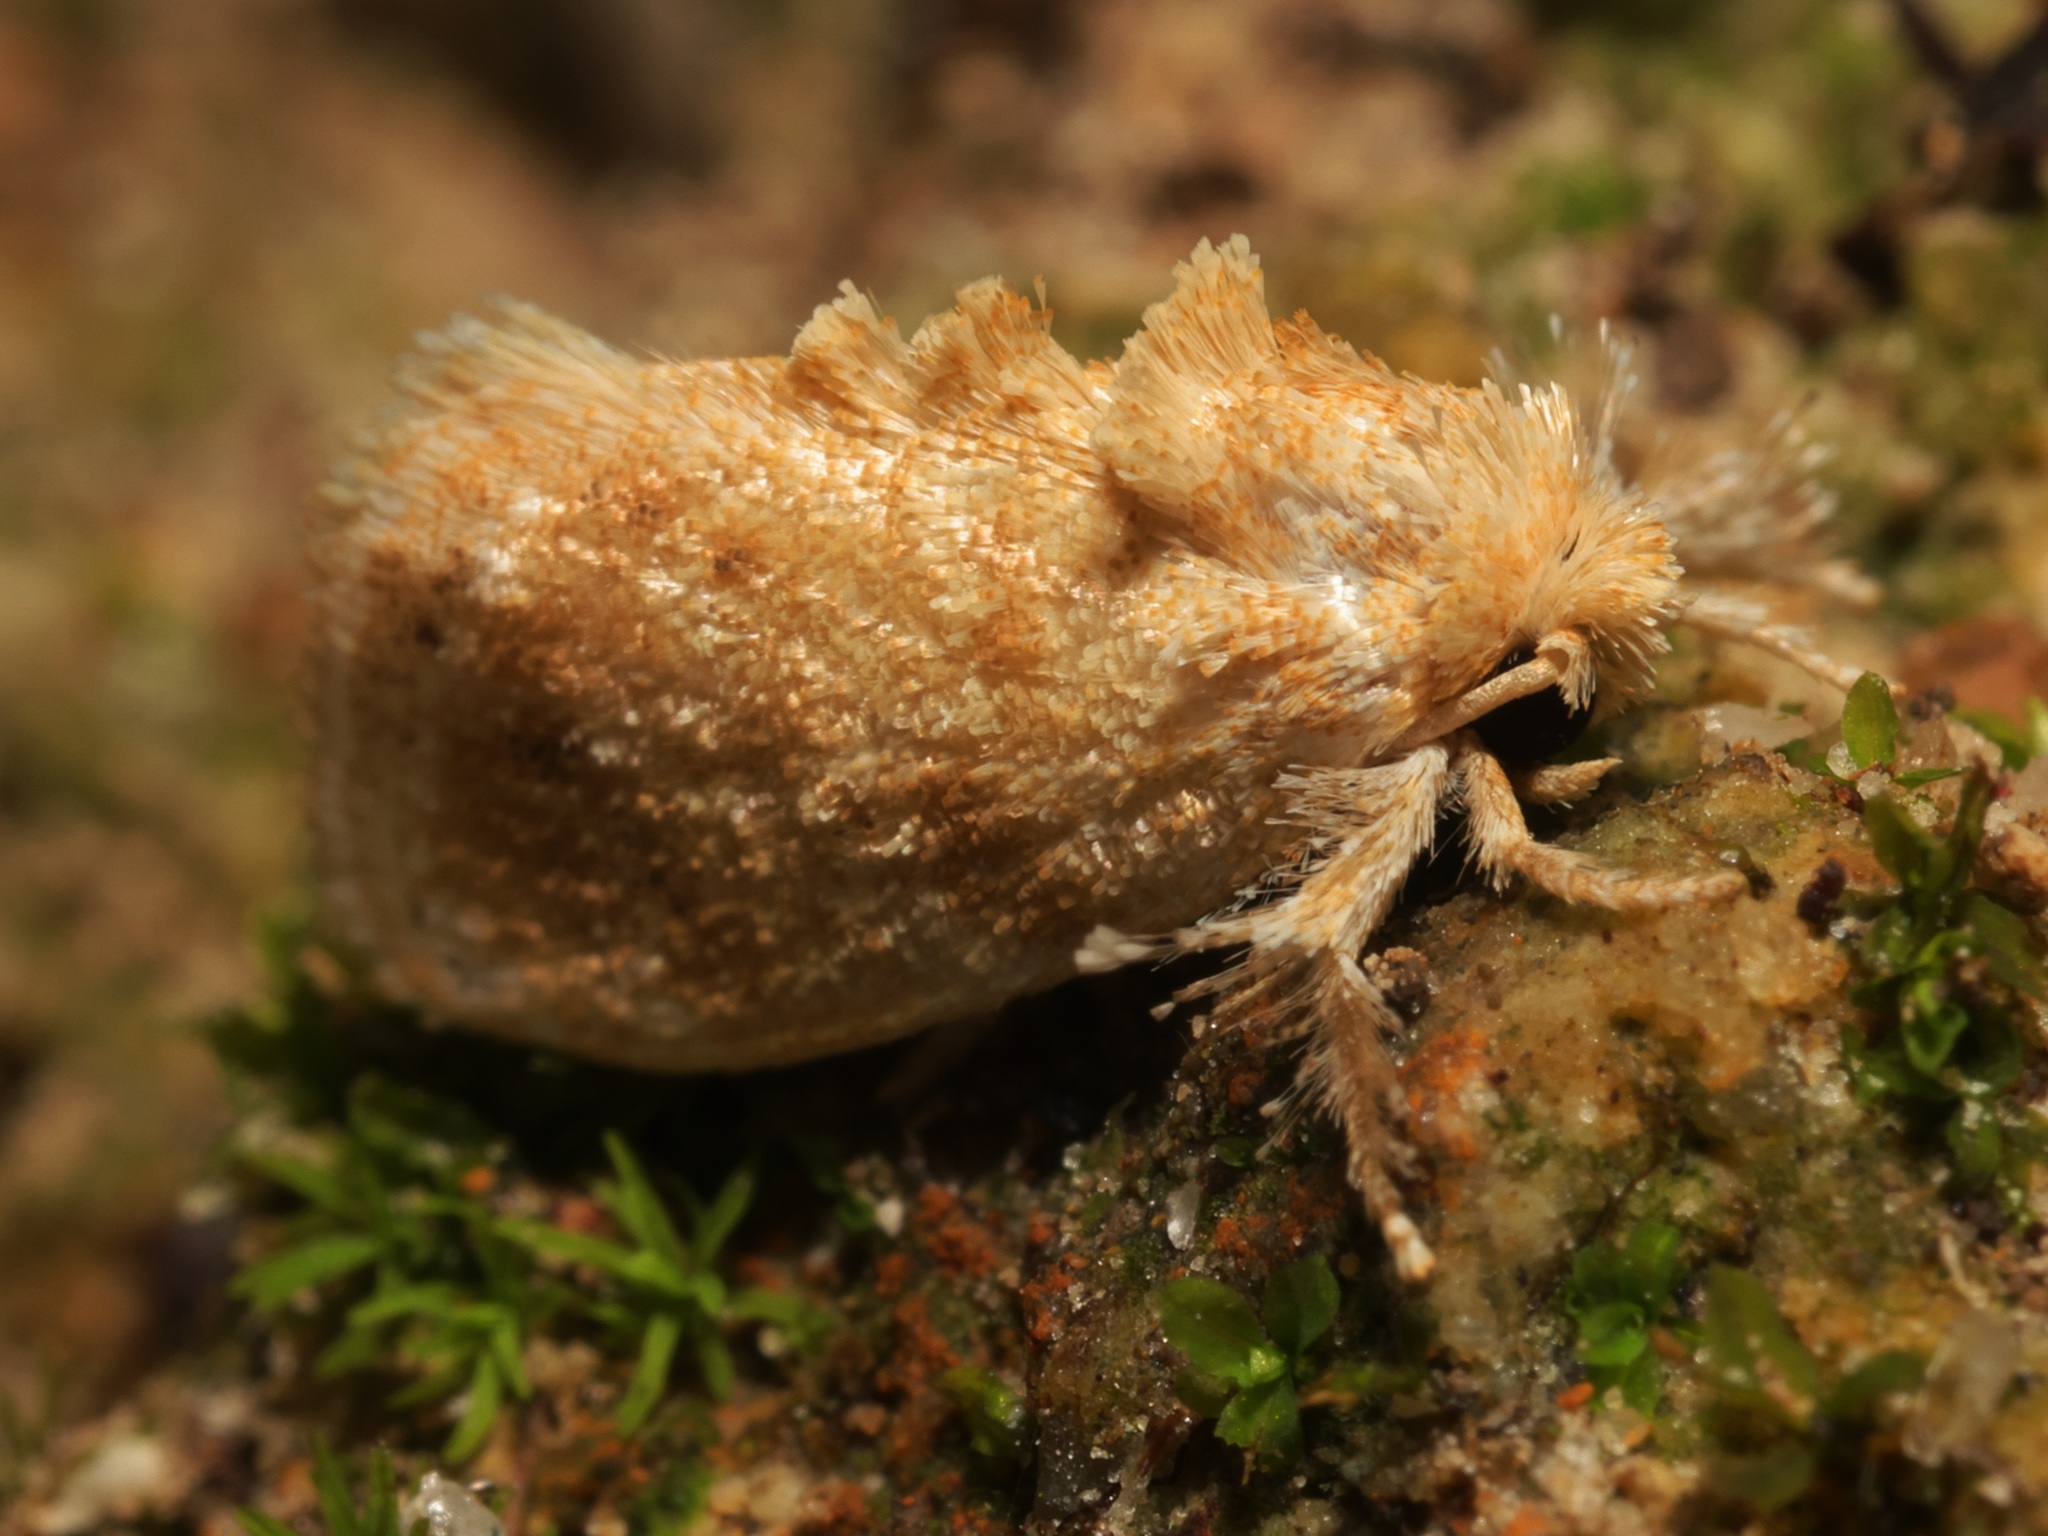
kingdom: Animalia
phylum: Arthropoda
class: Insecta
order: Lepidoptera
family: Limacodidae
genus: Narosa
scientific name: Narosa nigrisigna
